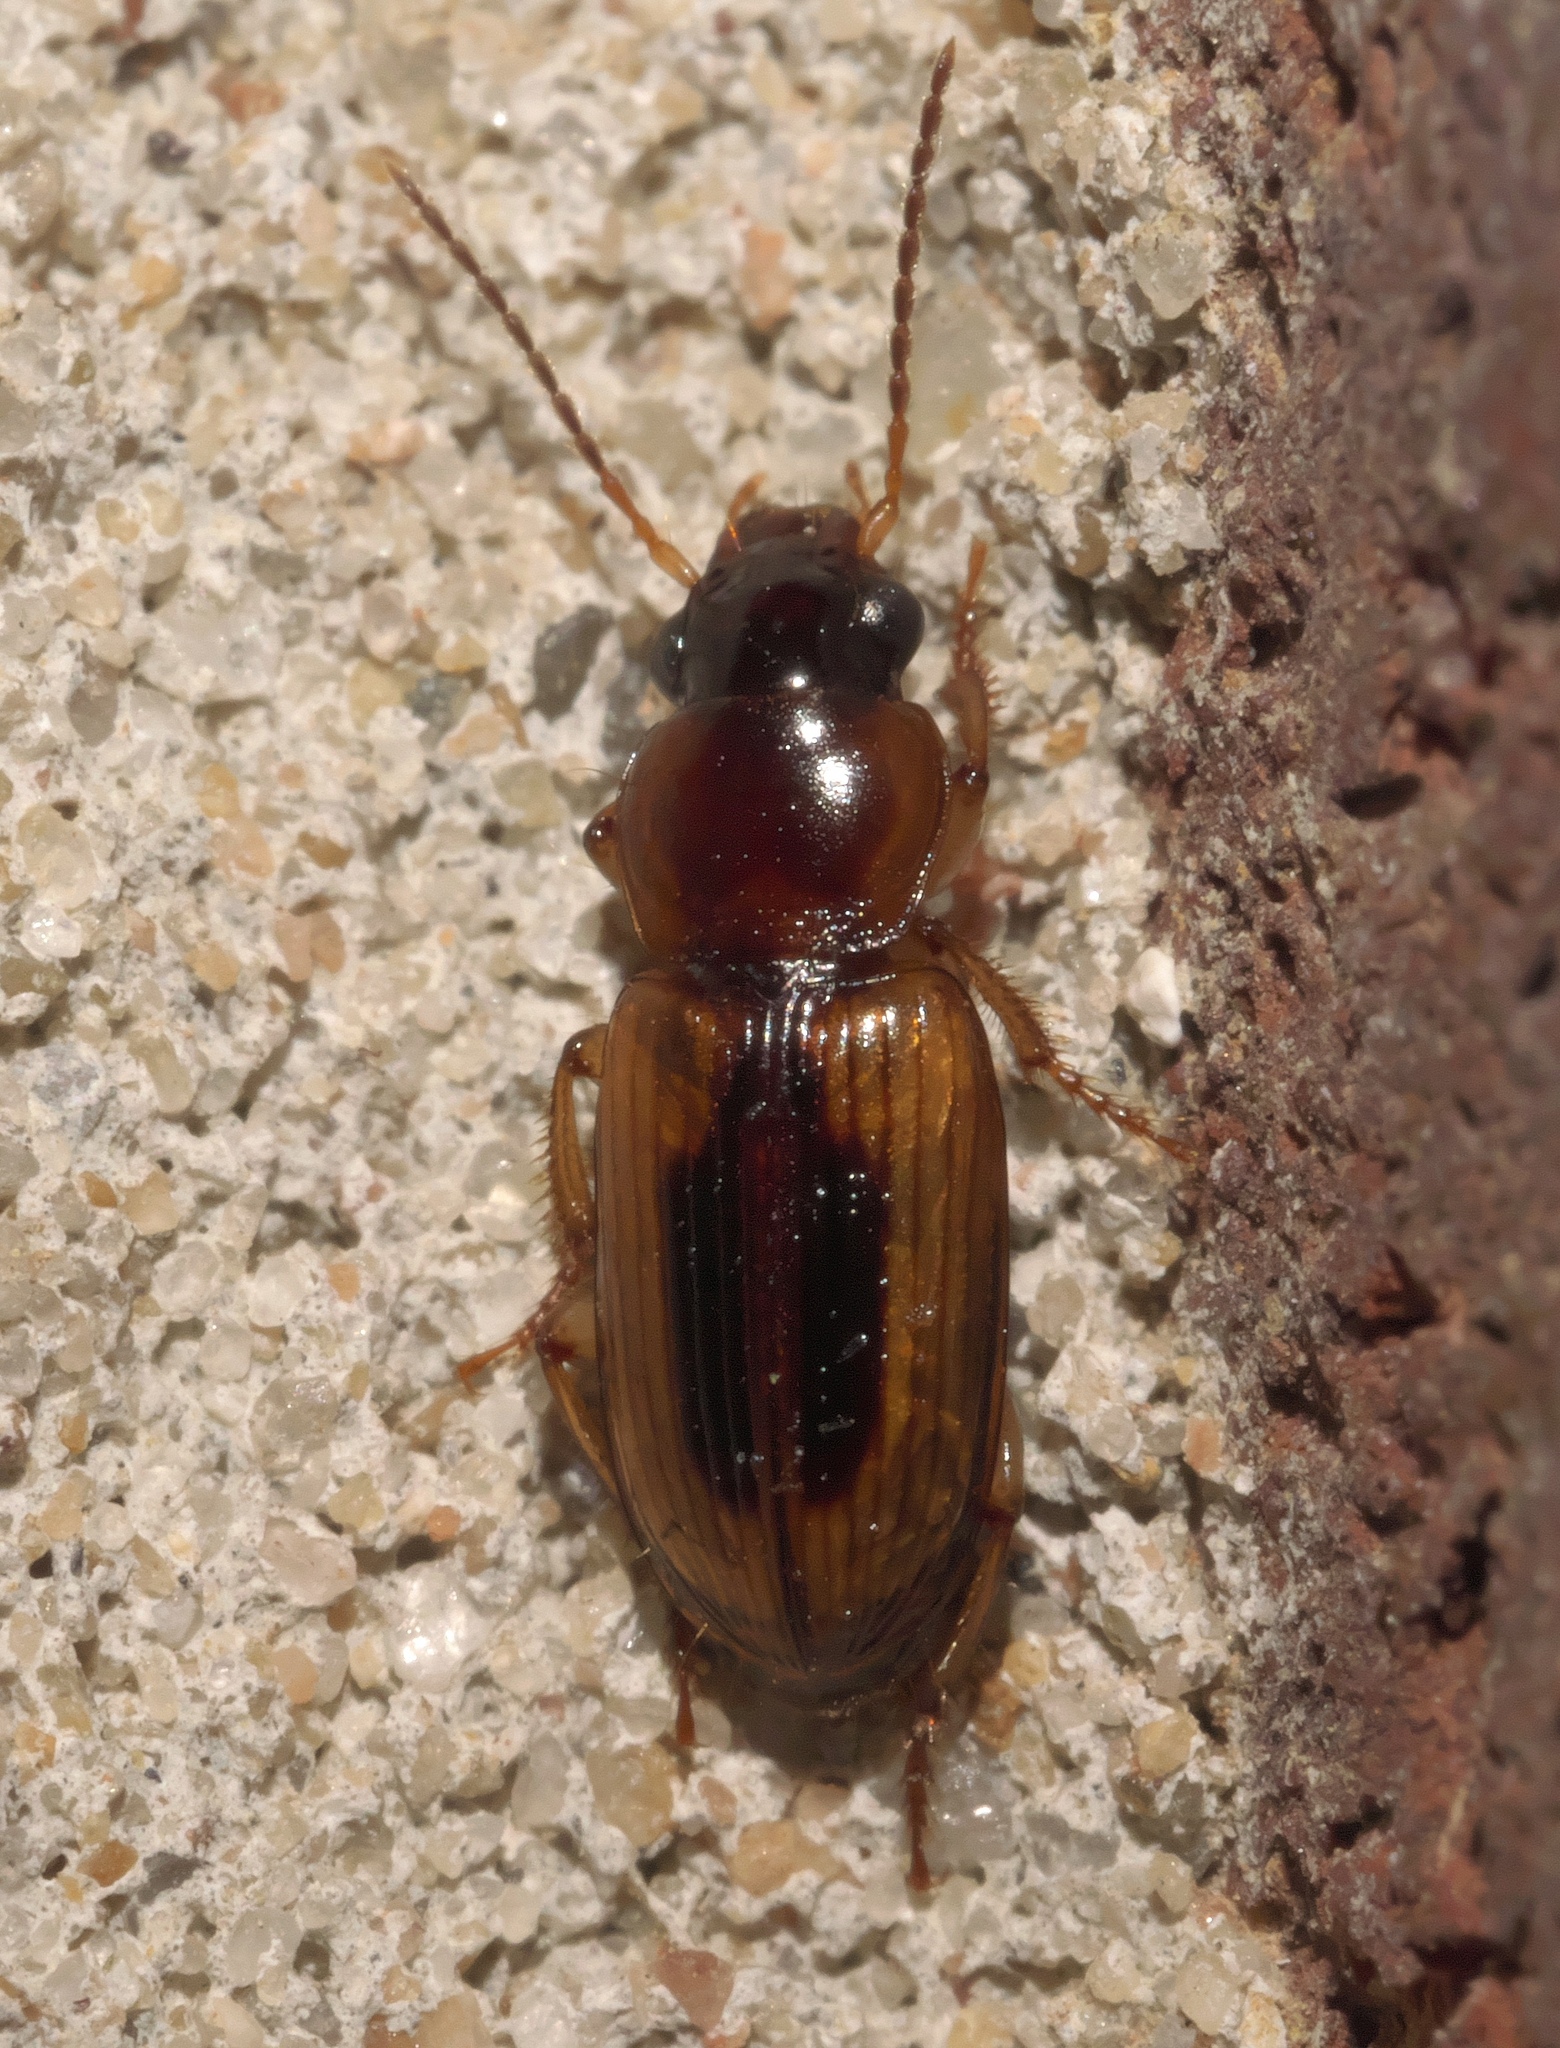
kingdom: Animalia
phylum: Arthropoda
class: Insecta
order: Coleoptera
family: Carabidae
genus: Stenolophus
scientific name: Stenolophus comma
